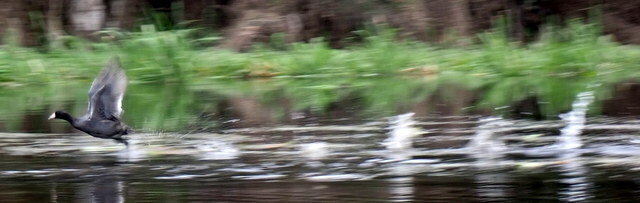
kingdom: Animalia
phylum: Chordata
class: Aves
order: Gruiformes
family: Rallidae
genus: Fulica
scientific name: Fulica americana
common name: American coot
